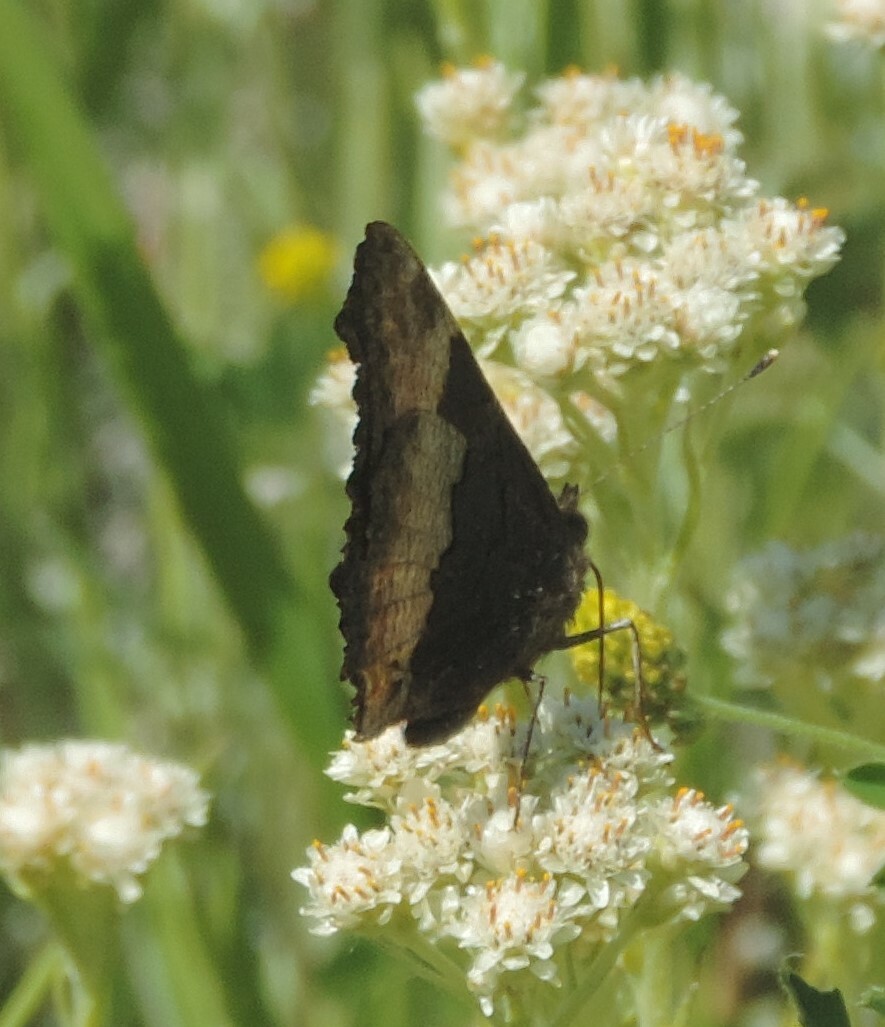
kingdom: Animalia
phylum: Arthropoda
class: Insecta
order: Lepidoptera
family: Nymphalidae
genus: Aglais
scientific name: Aglais milberti
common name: Milbert's tortoiseshell
